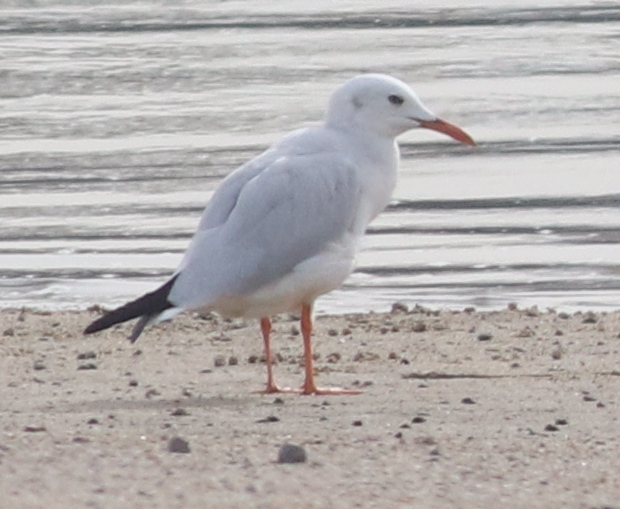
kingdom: Animalia
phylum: Chordata
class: Aves
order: Charadriiformes
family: Laridae
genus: Chroicocephalus
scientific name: Chroicocephalus genei
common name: Slender-billed gull
